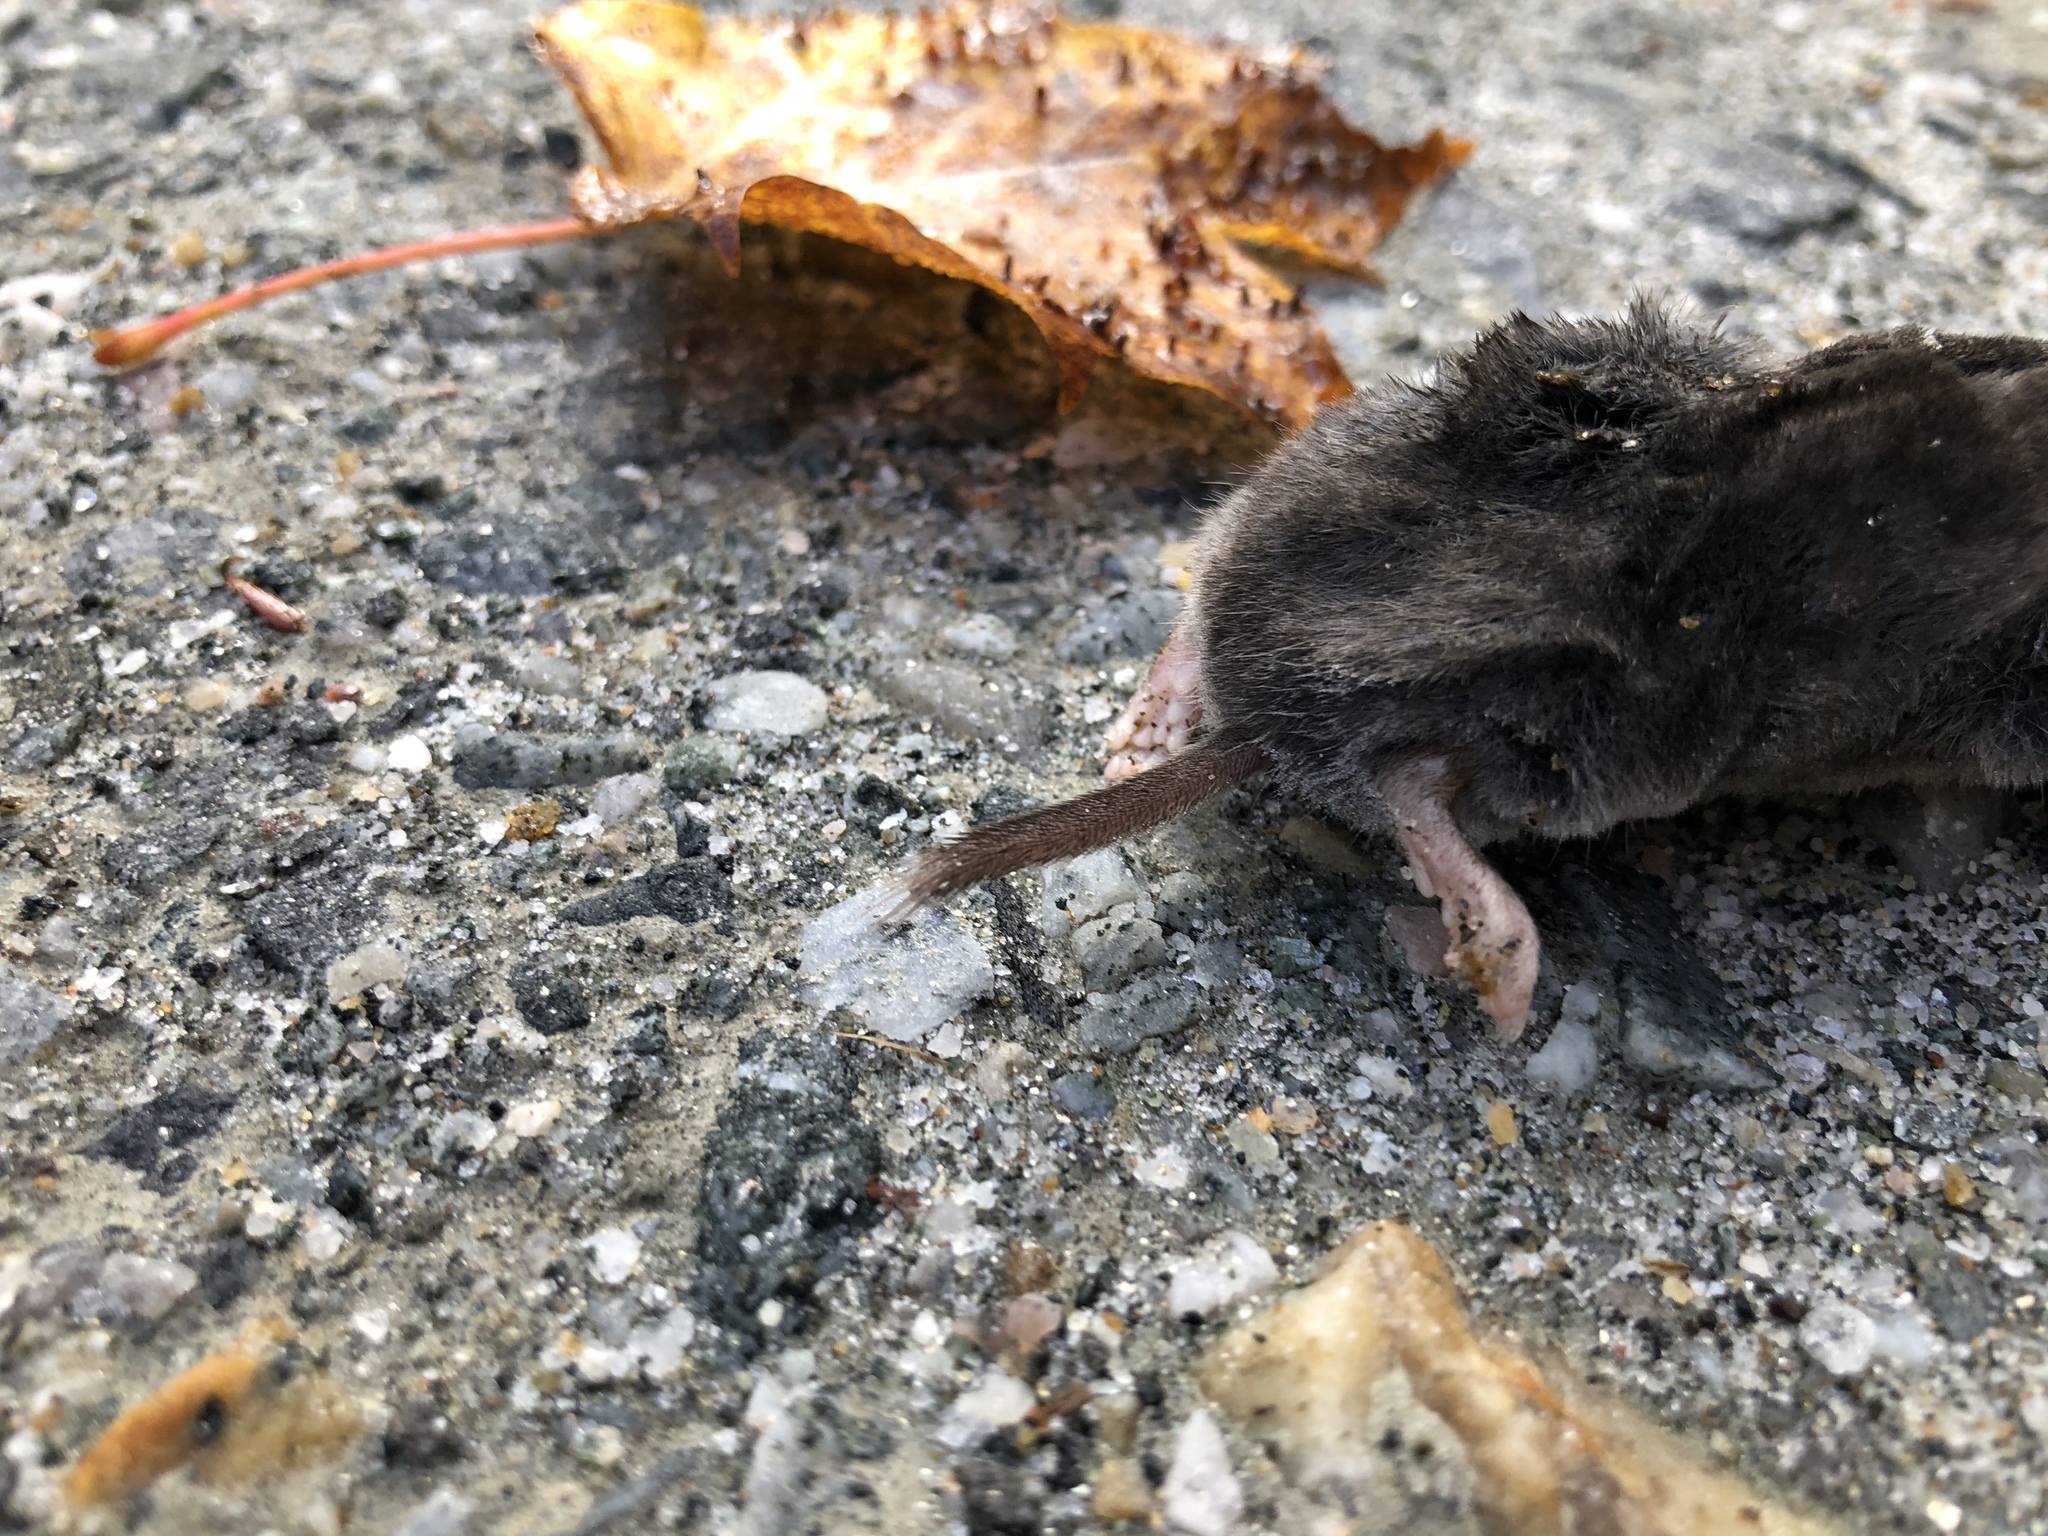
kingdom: Animalia
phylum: Chordata
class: Mammalia
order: Soricomorpha
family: Soricidae
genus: Blarina
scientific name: Blarina brevicauda
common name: Northern short-tailed shrew
